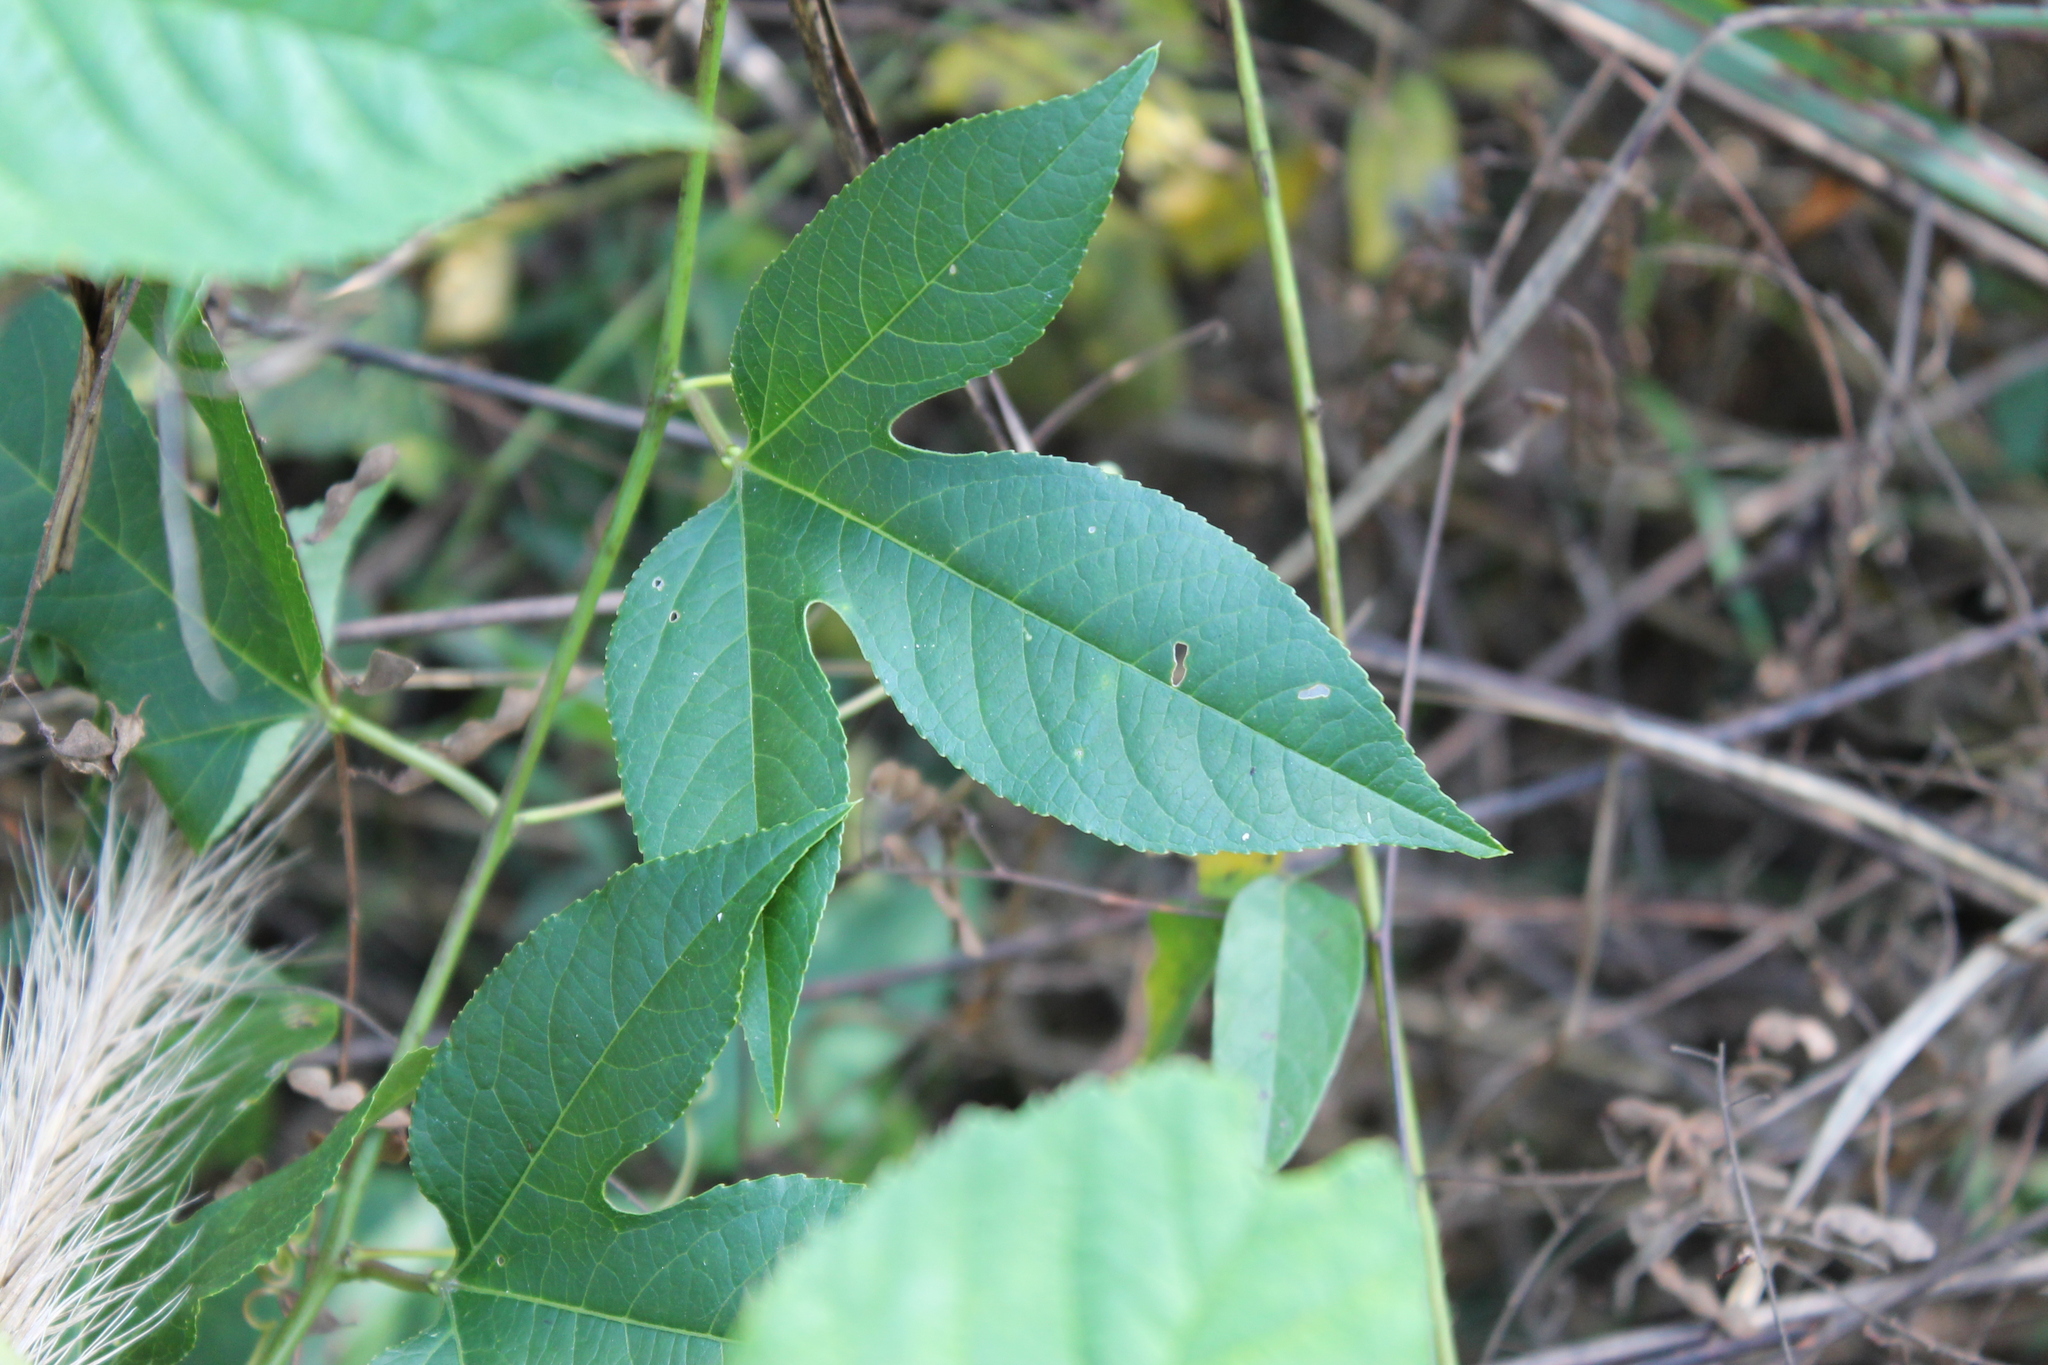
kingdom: Plantae
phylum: Tracheophyta
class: Magnoliopsida
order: Malpighiales
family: Passifloraceae
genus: Passiflora
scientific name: Passiflora incarnata
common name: Apricot-vine
